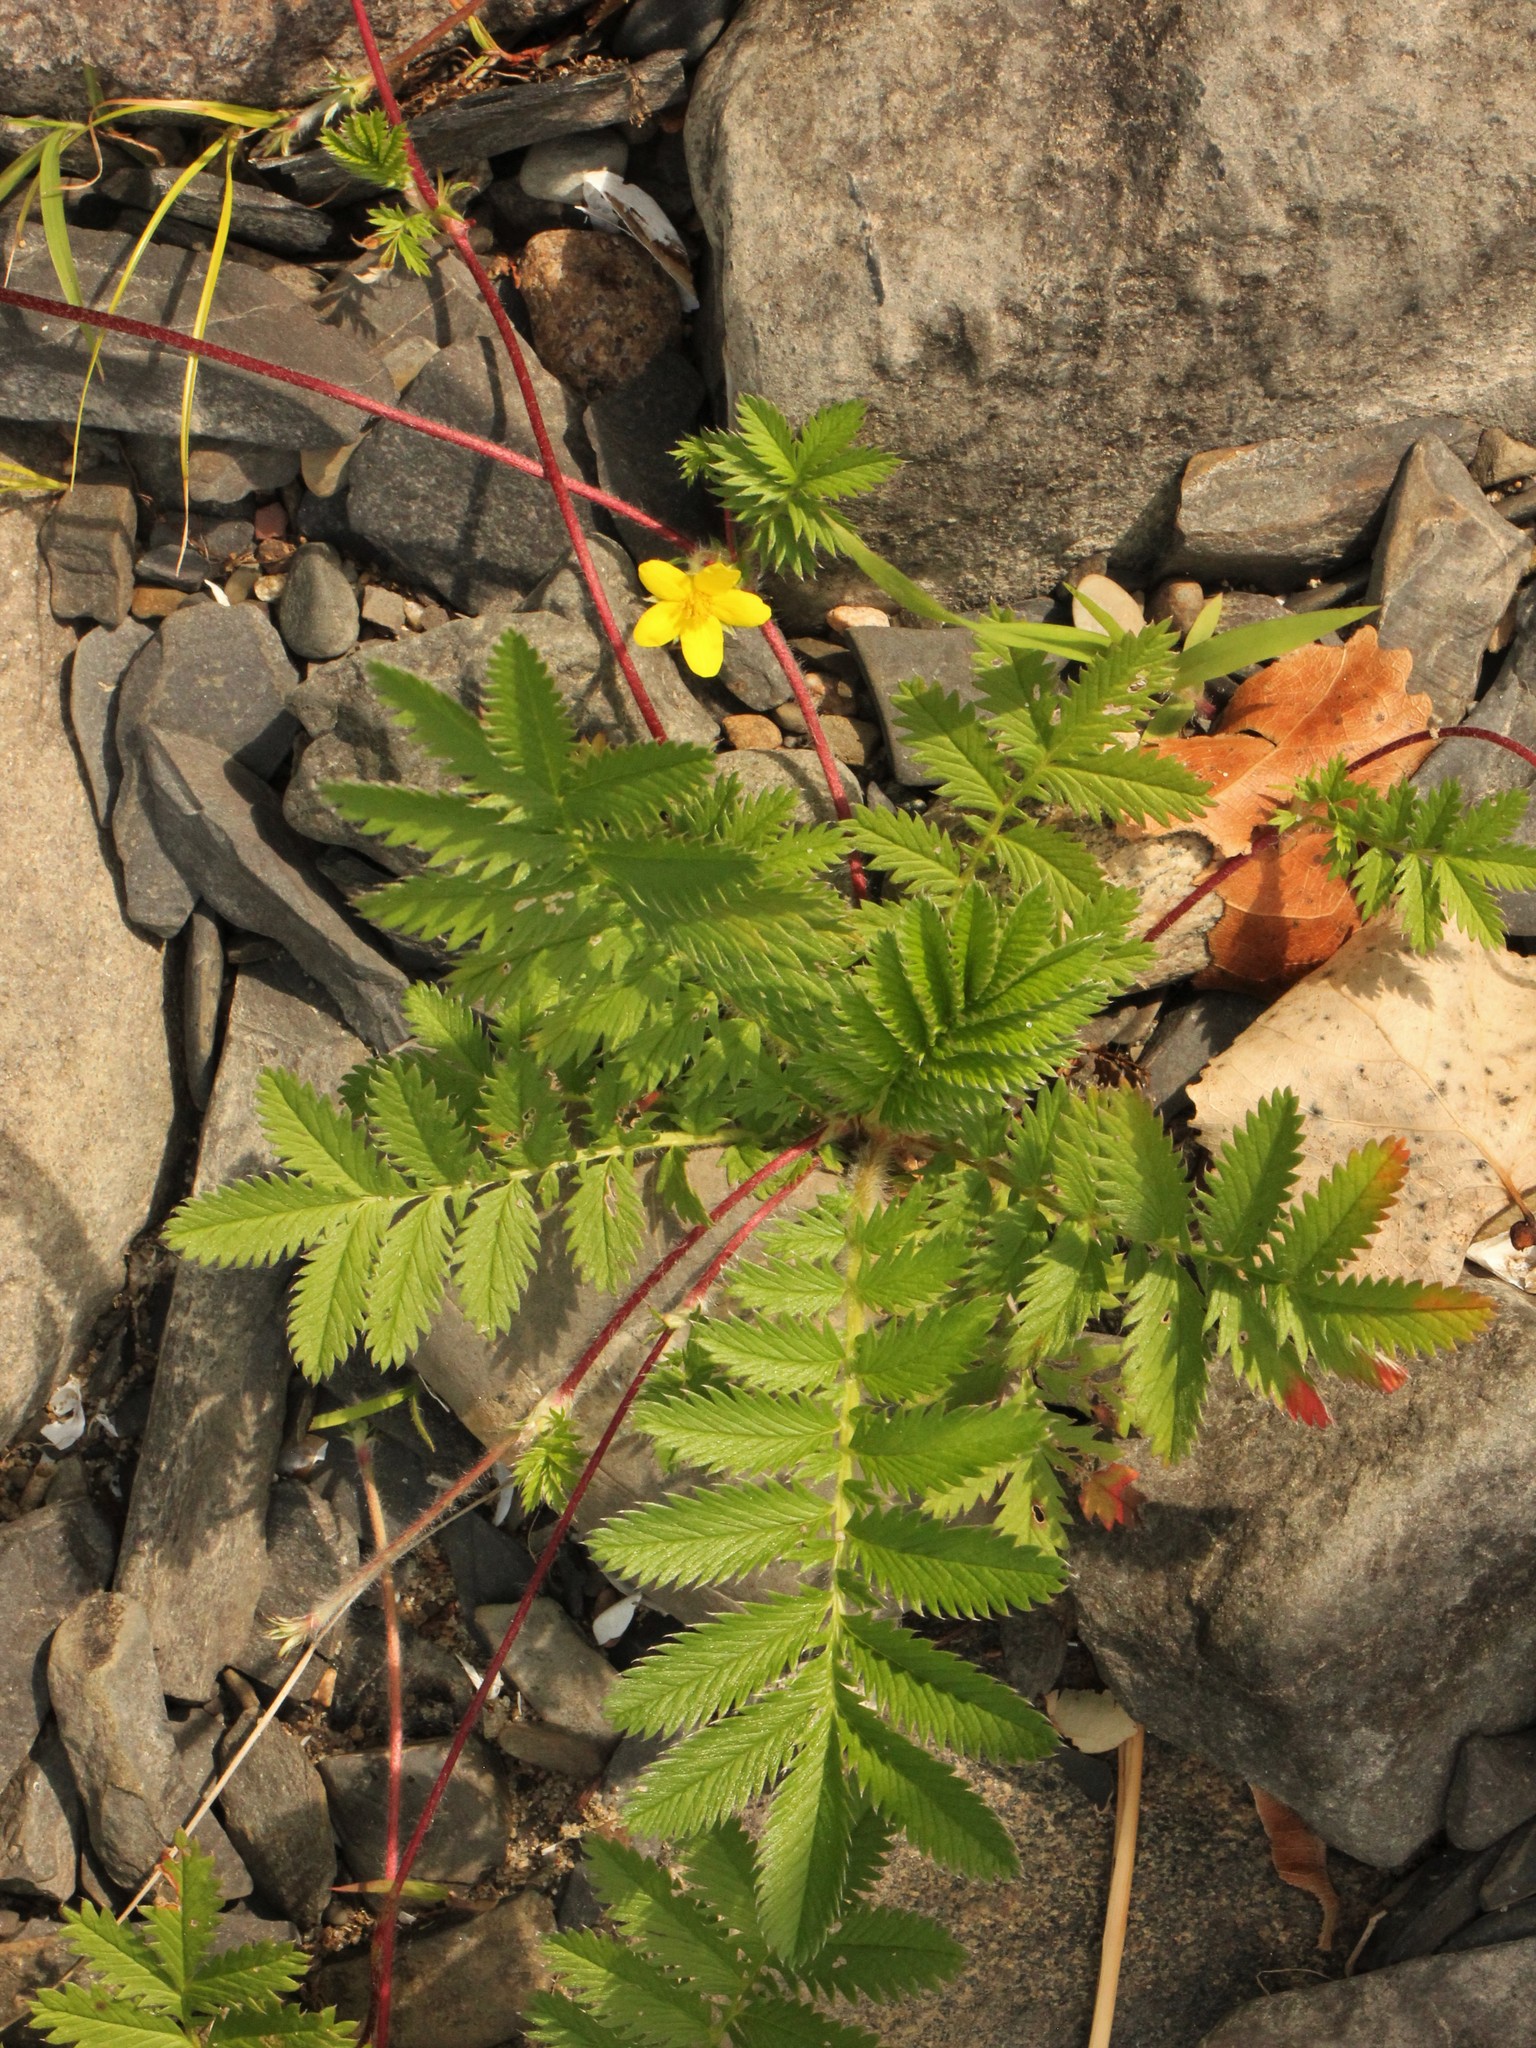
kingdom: Plantae
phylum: Tracheophyta
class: Magnoliopsida
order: Rosales
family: Rosaceae
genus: Argentina
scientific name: Argentina anserina
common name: Common silverweed
